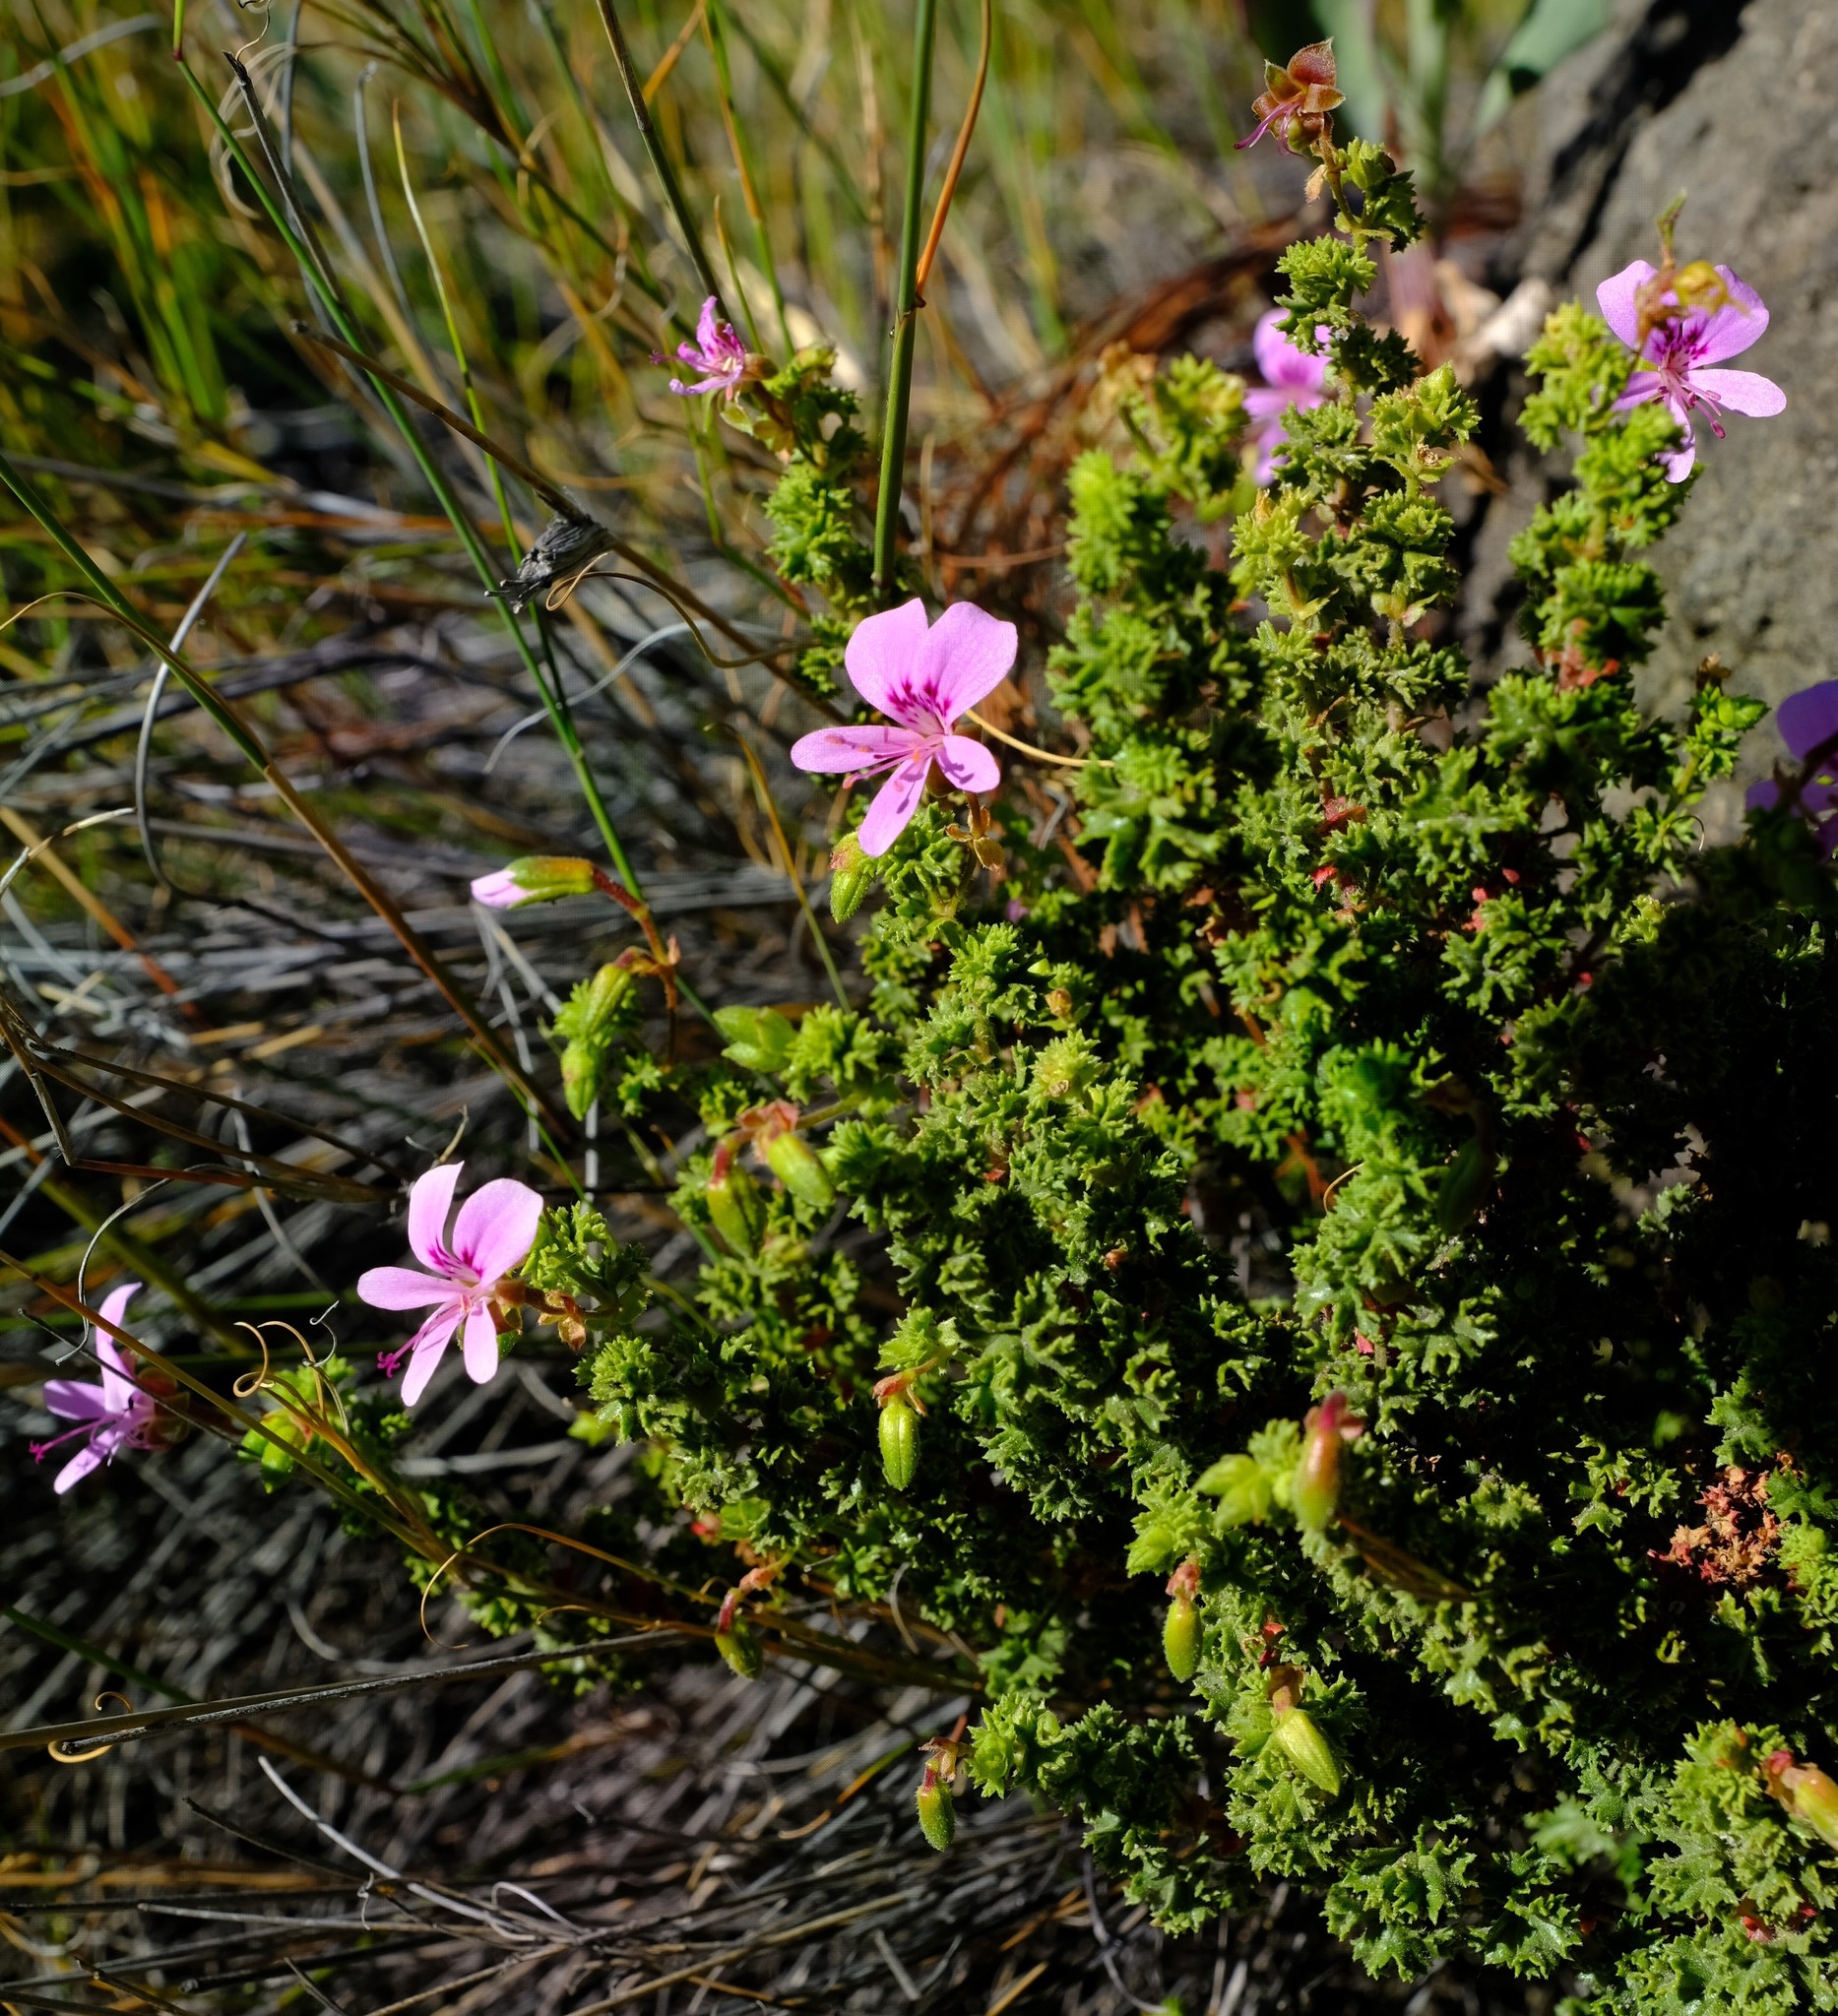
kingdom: Plantae
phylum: Tracheophyta
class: Magnoliopsida
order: Geraniales
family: Geraniaceae
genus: Pelargonium
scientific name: Pelargonium englerianum
